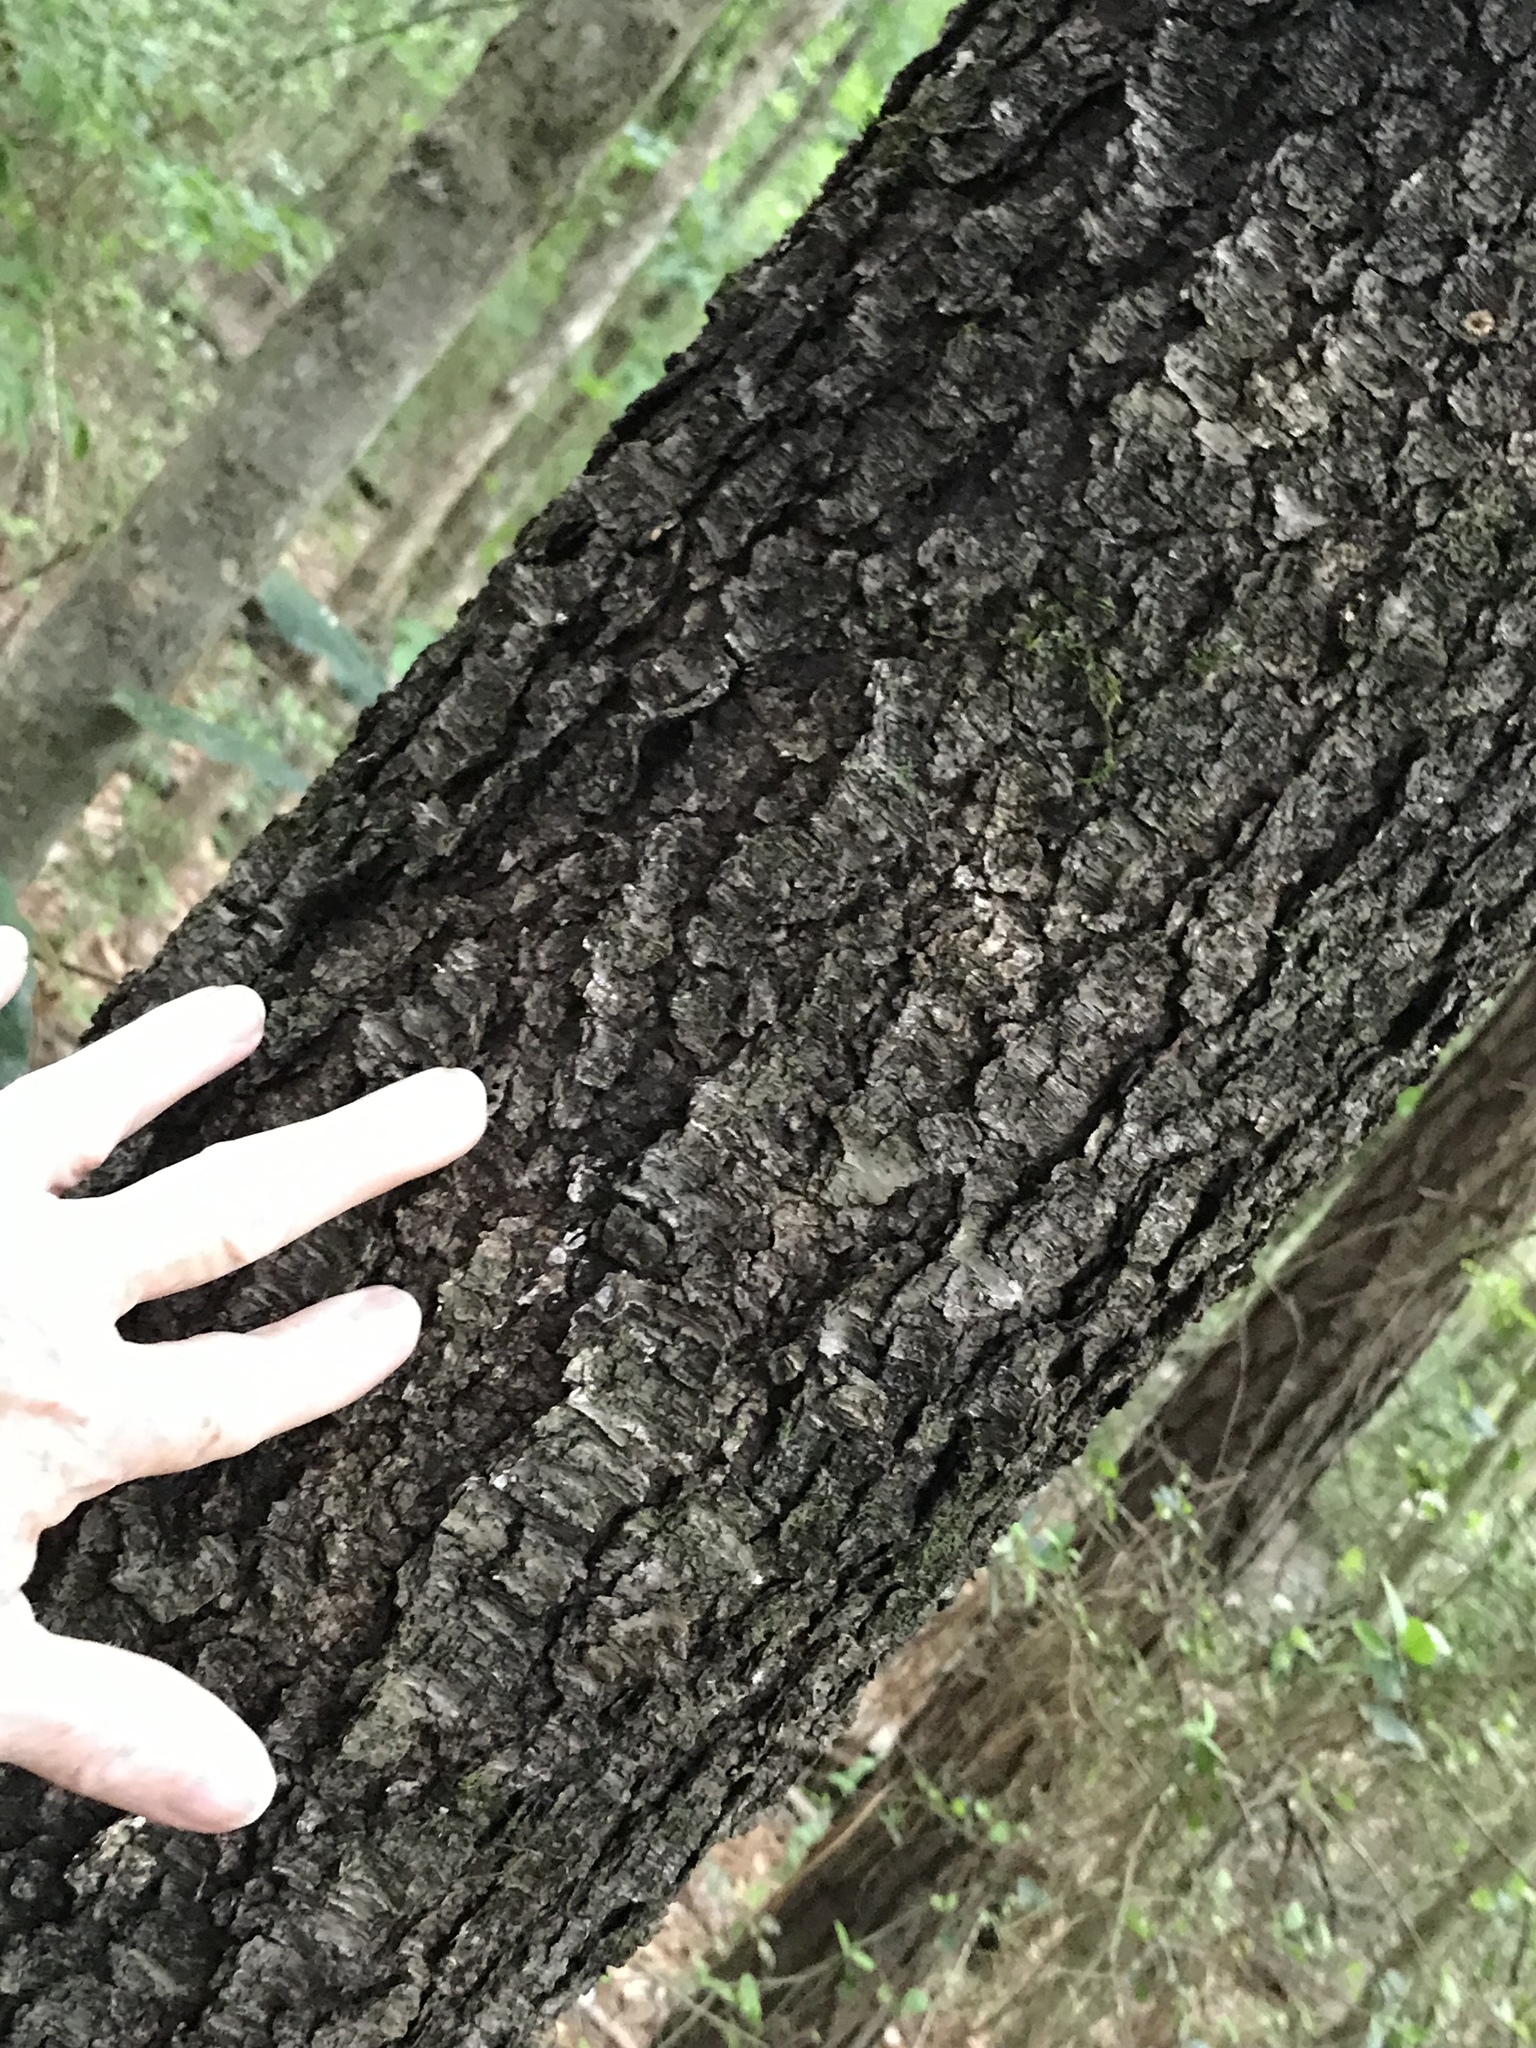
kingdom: Plantae
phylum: Tracheophyta
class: Magnoliopsida
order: Rosales
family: Rosaceae
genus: Prunus
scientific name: Prunus serotina
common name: Black cherry
